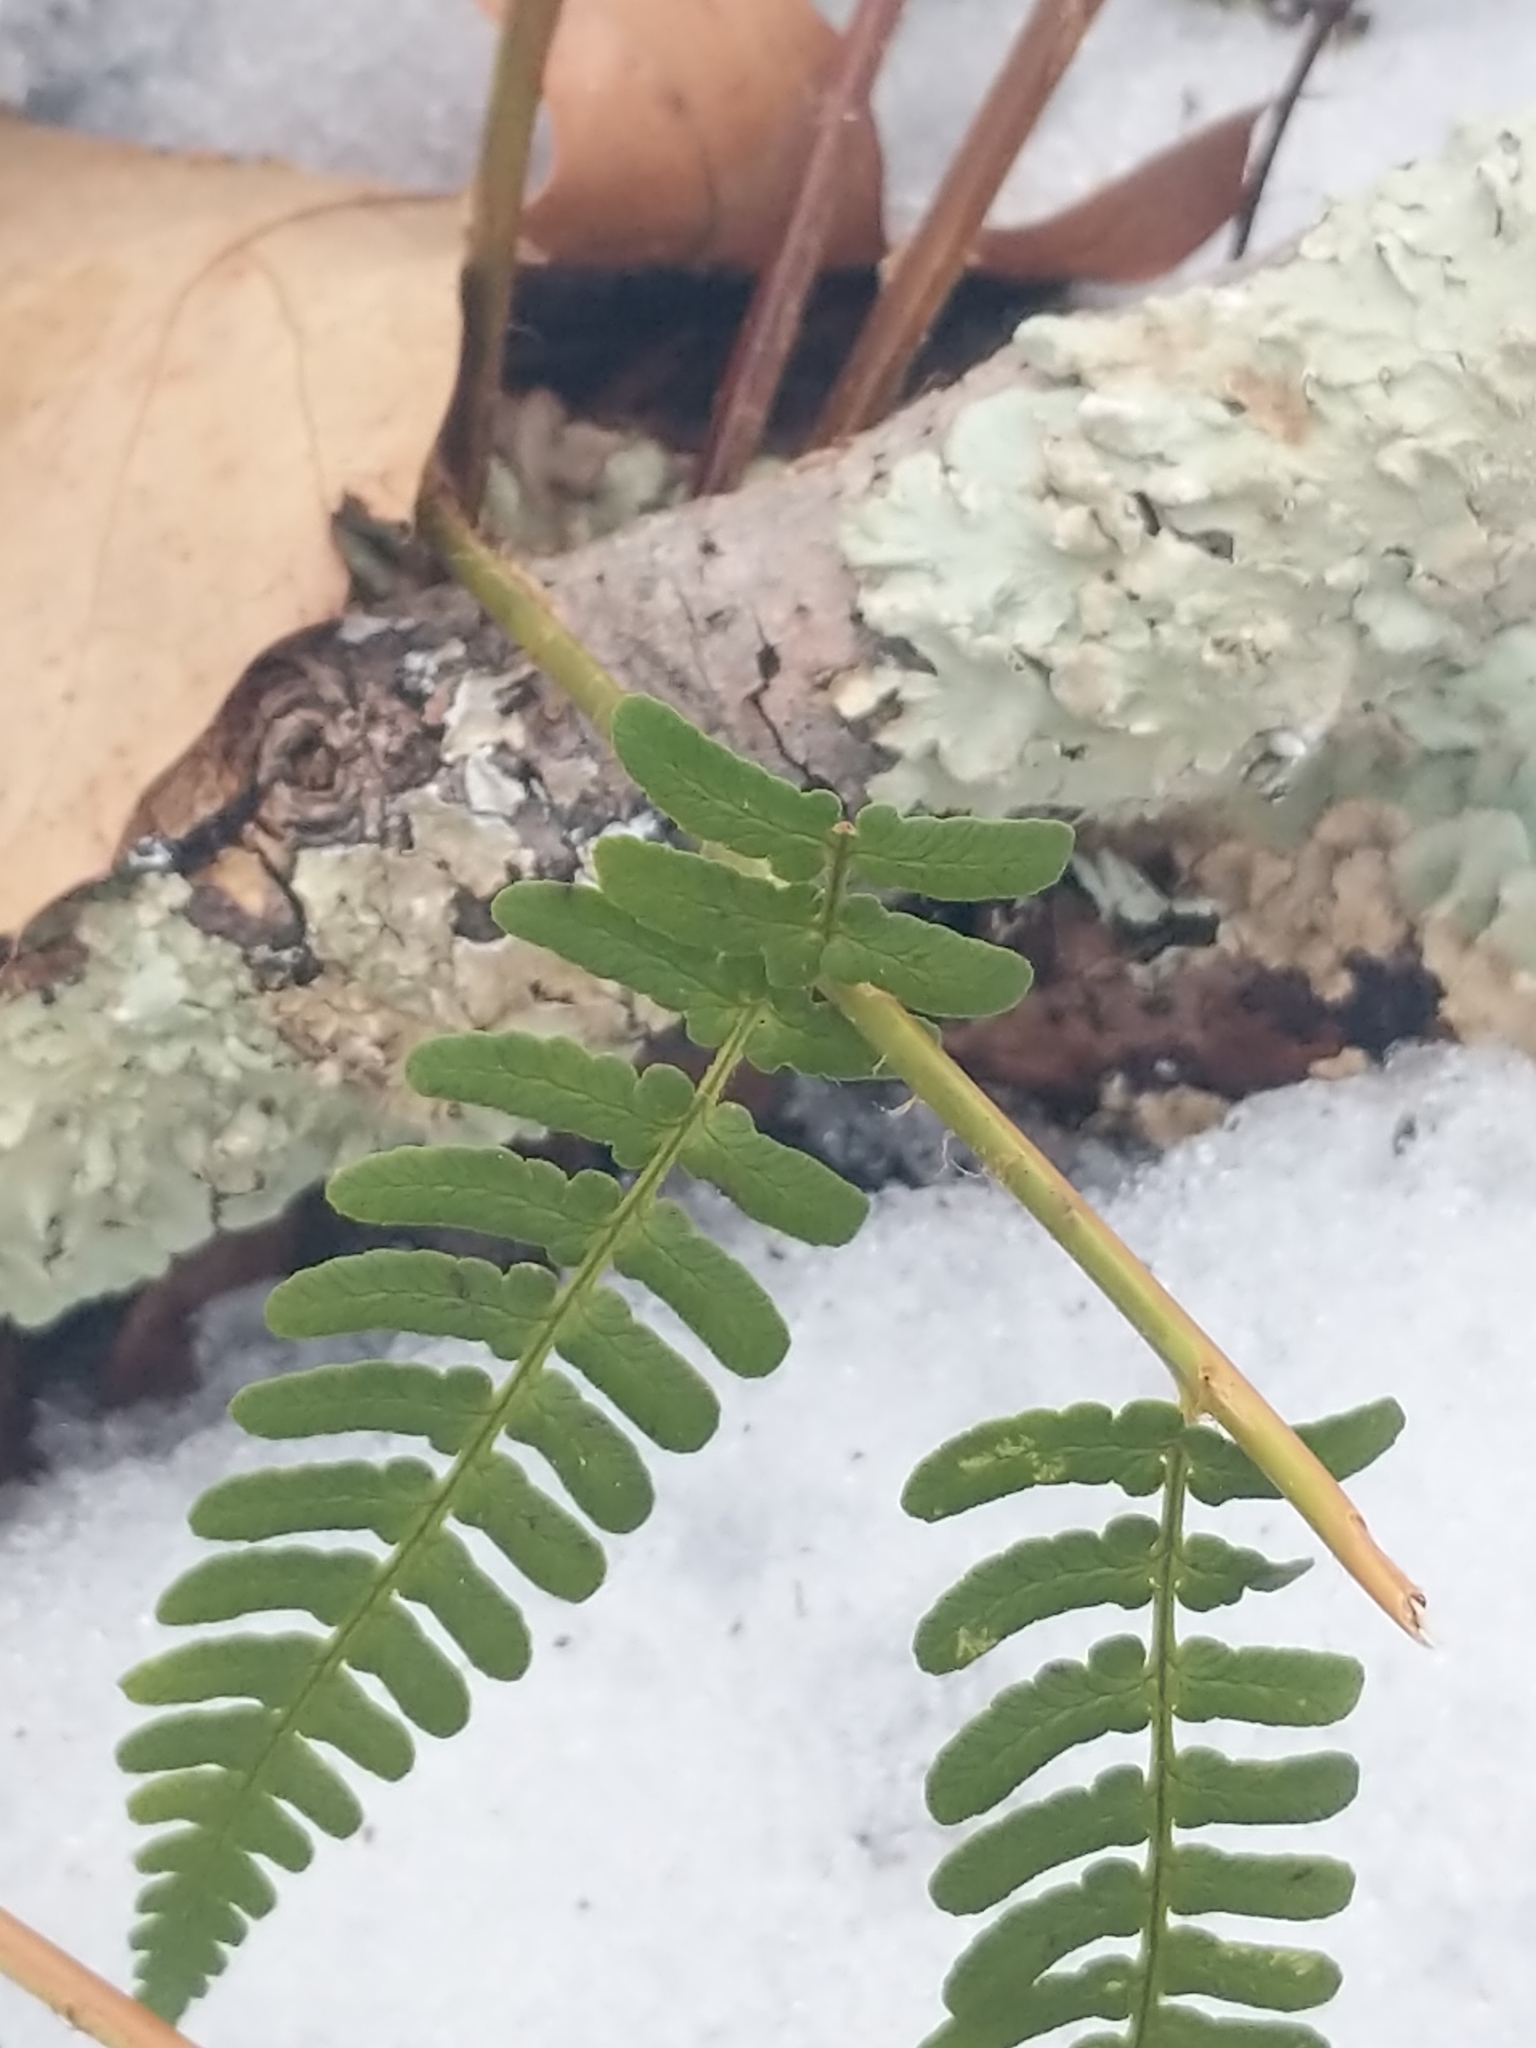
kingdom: Plantae
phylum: Tracheophyta
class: Polypodiopsida
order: Polypodiales
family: Dryopteridaceae
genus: Dryopteris
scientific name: Dryopteris marginalis
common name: Marginal wood fern
